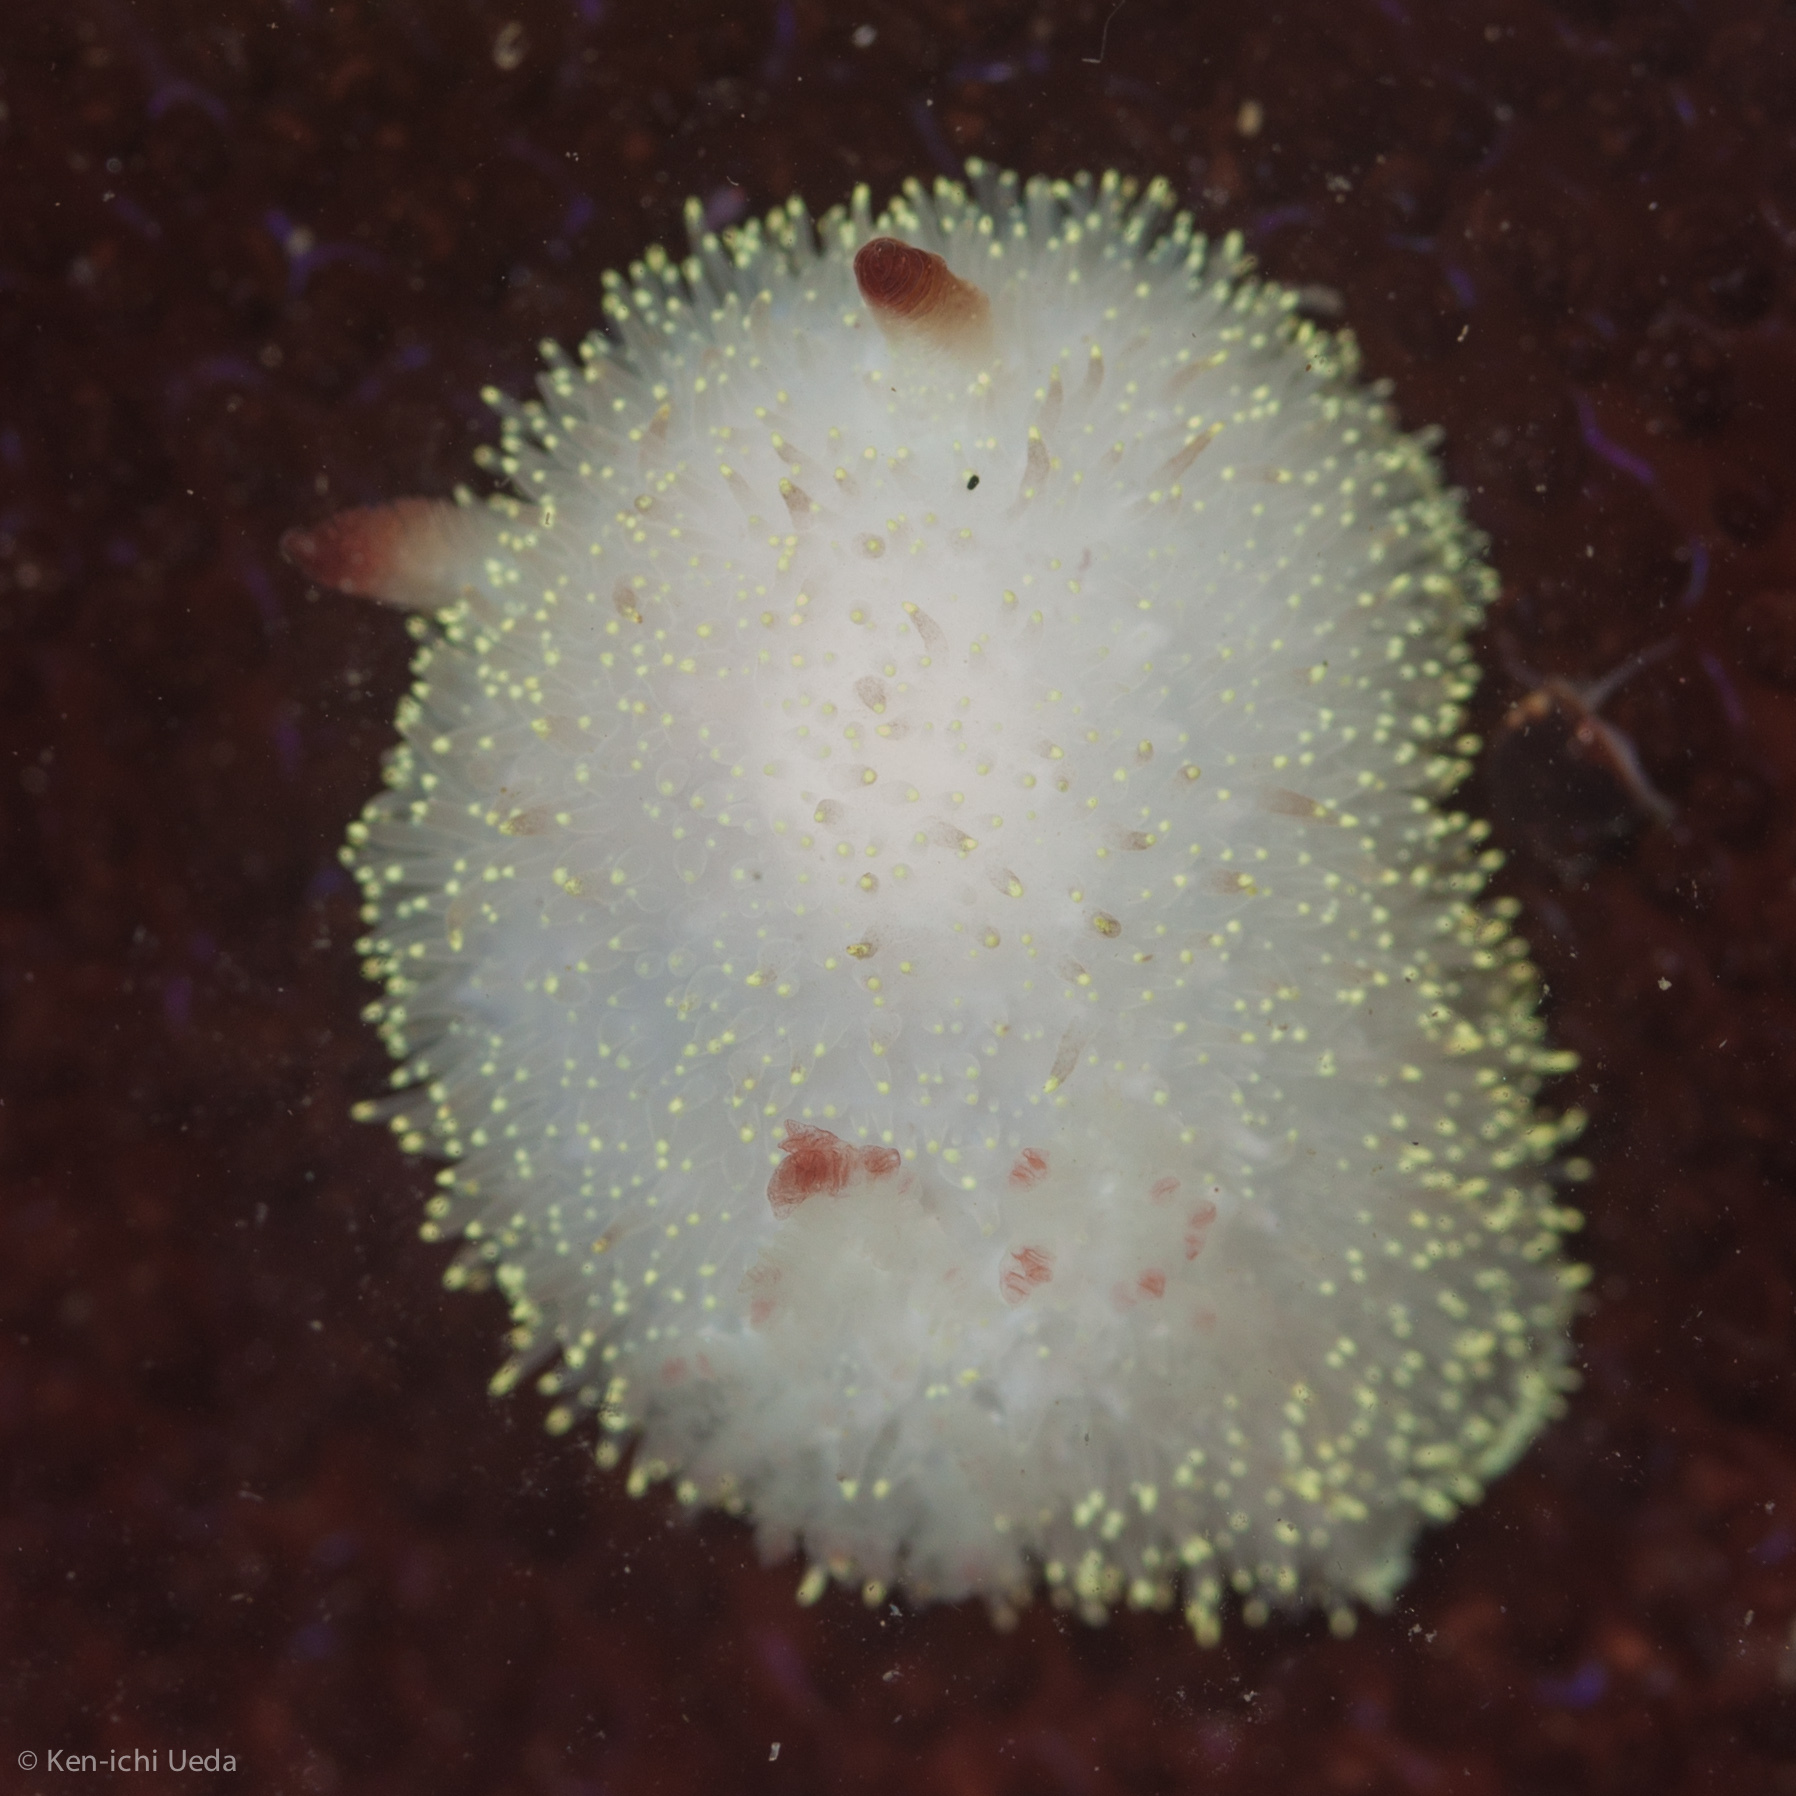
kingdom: Animalia
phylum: Mollusca
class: Gastropoda
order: Nudibranchia
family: Onchidorididae
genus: Acanthodoris
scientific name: Acanthodoris nanaimoensis
